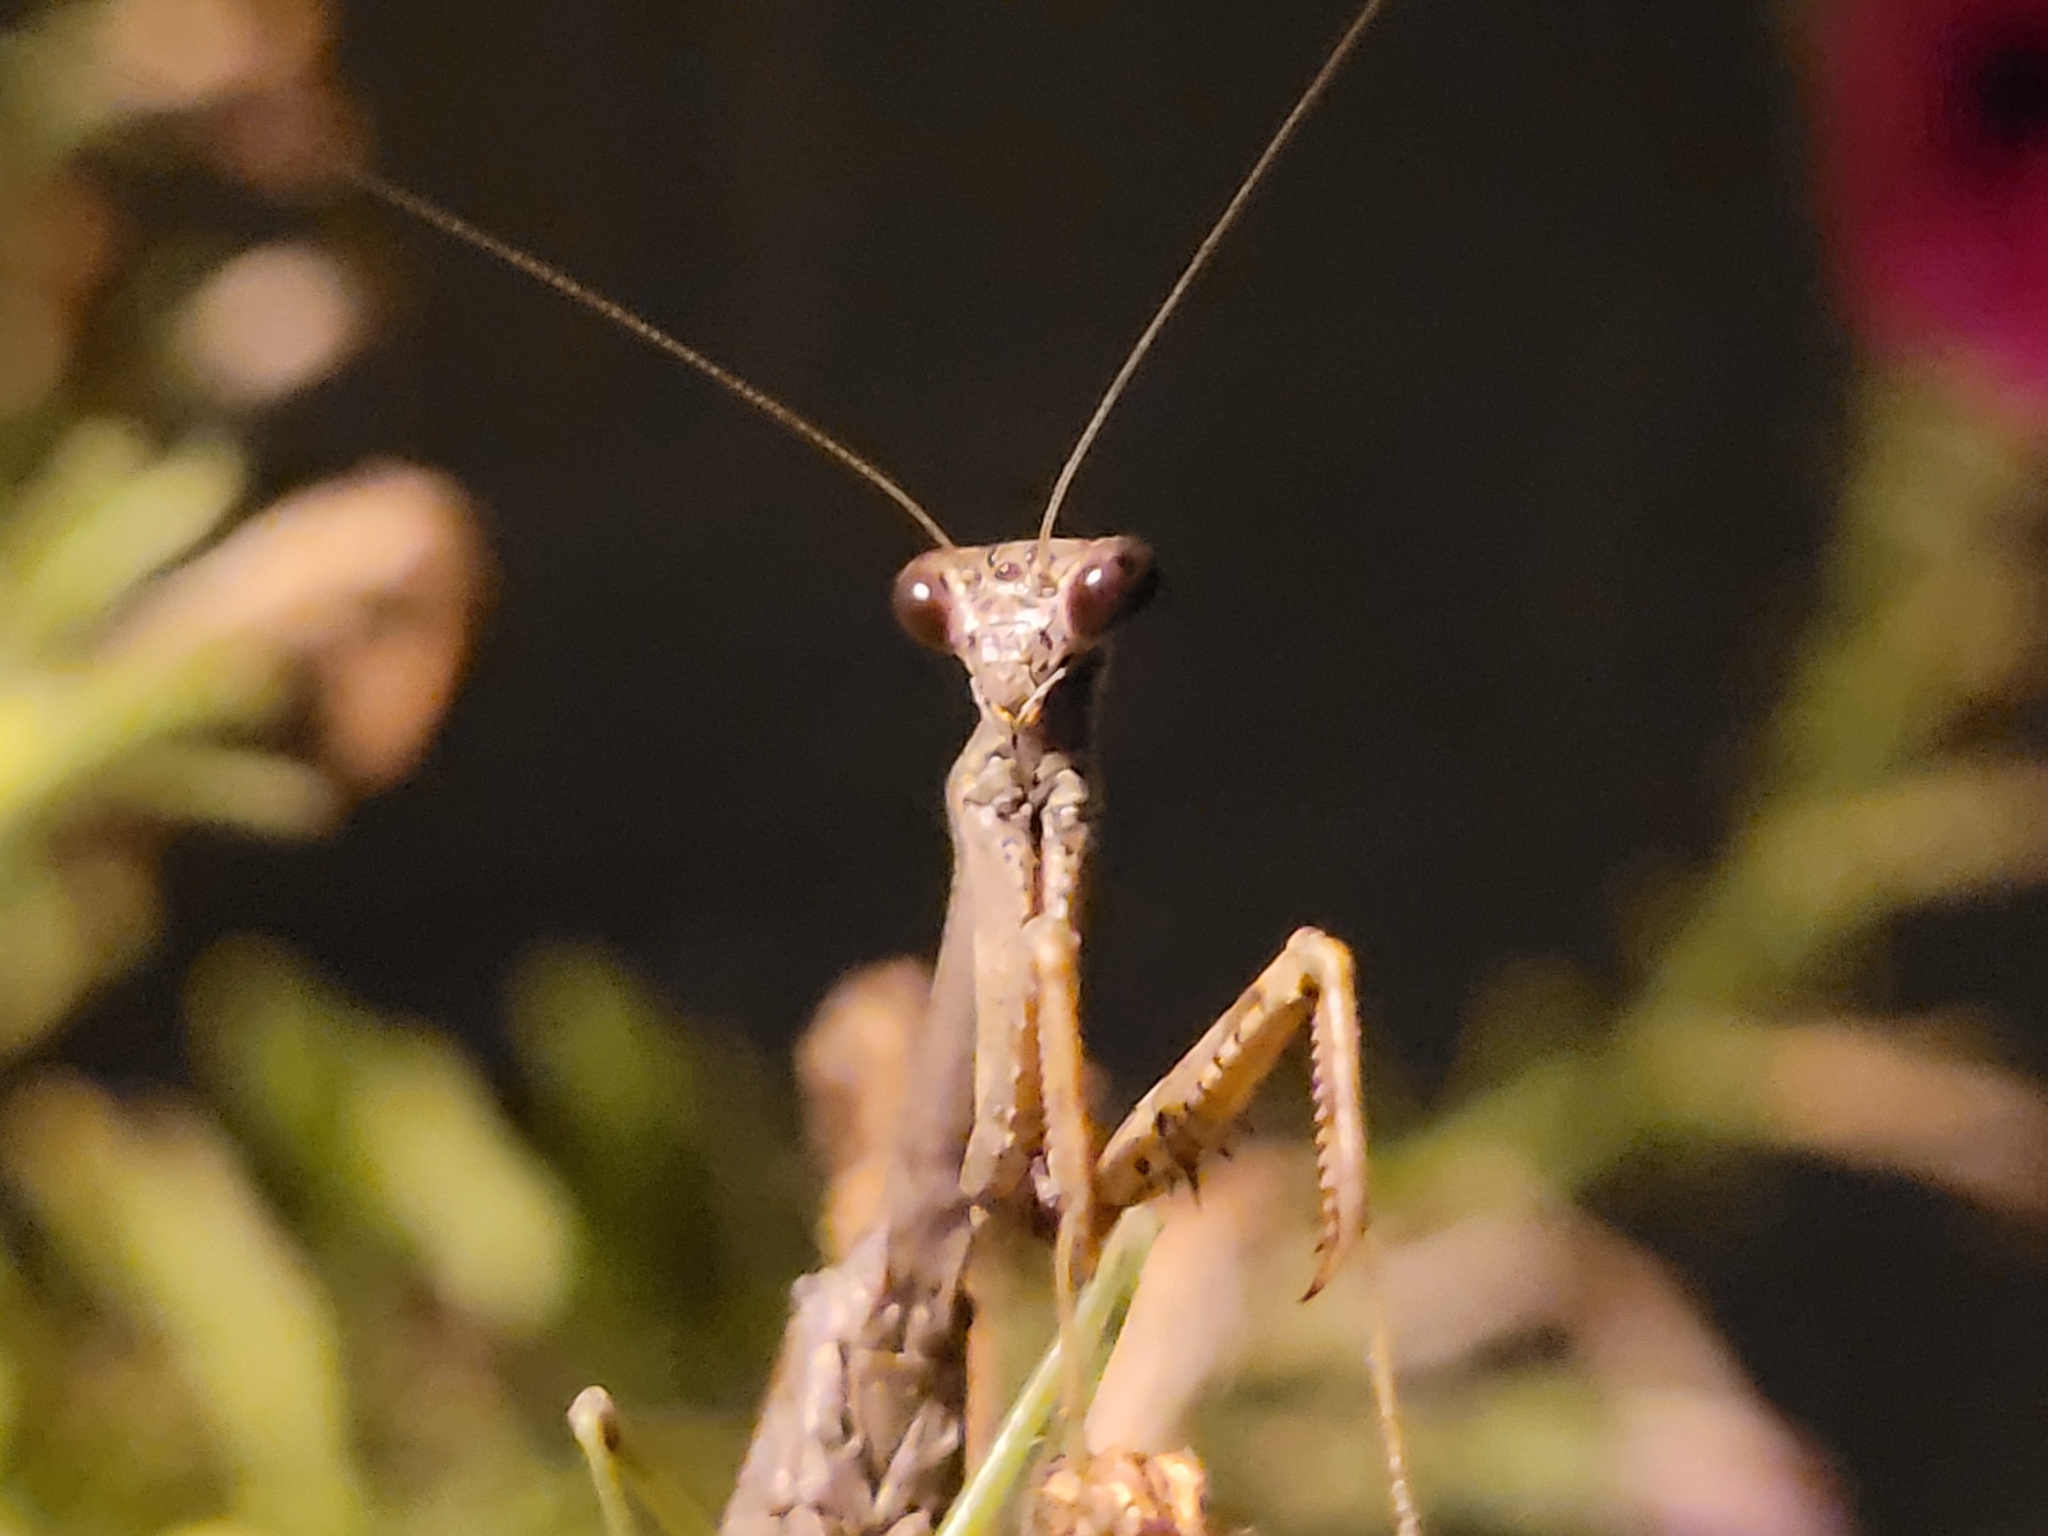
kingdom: Animalia
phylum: Arthropoda
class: Insecta
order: Mantodea
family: Mantidae
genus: Stagmomantis
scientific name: Stagmomantis carolina
